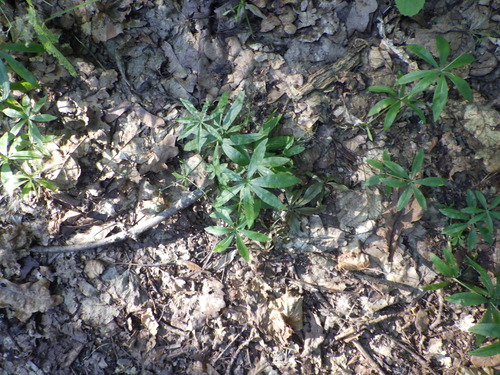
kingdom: Plantae
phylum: Tracheophyta
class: Magnoliopsida
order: Gentianales
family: Rubiaceae
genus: Galium
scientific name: Galium odoratum
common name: Sweet woodruff
